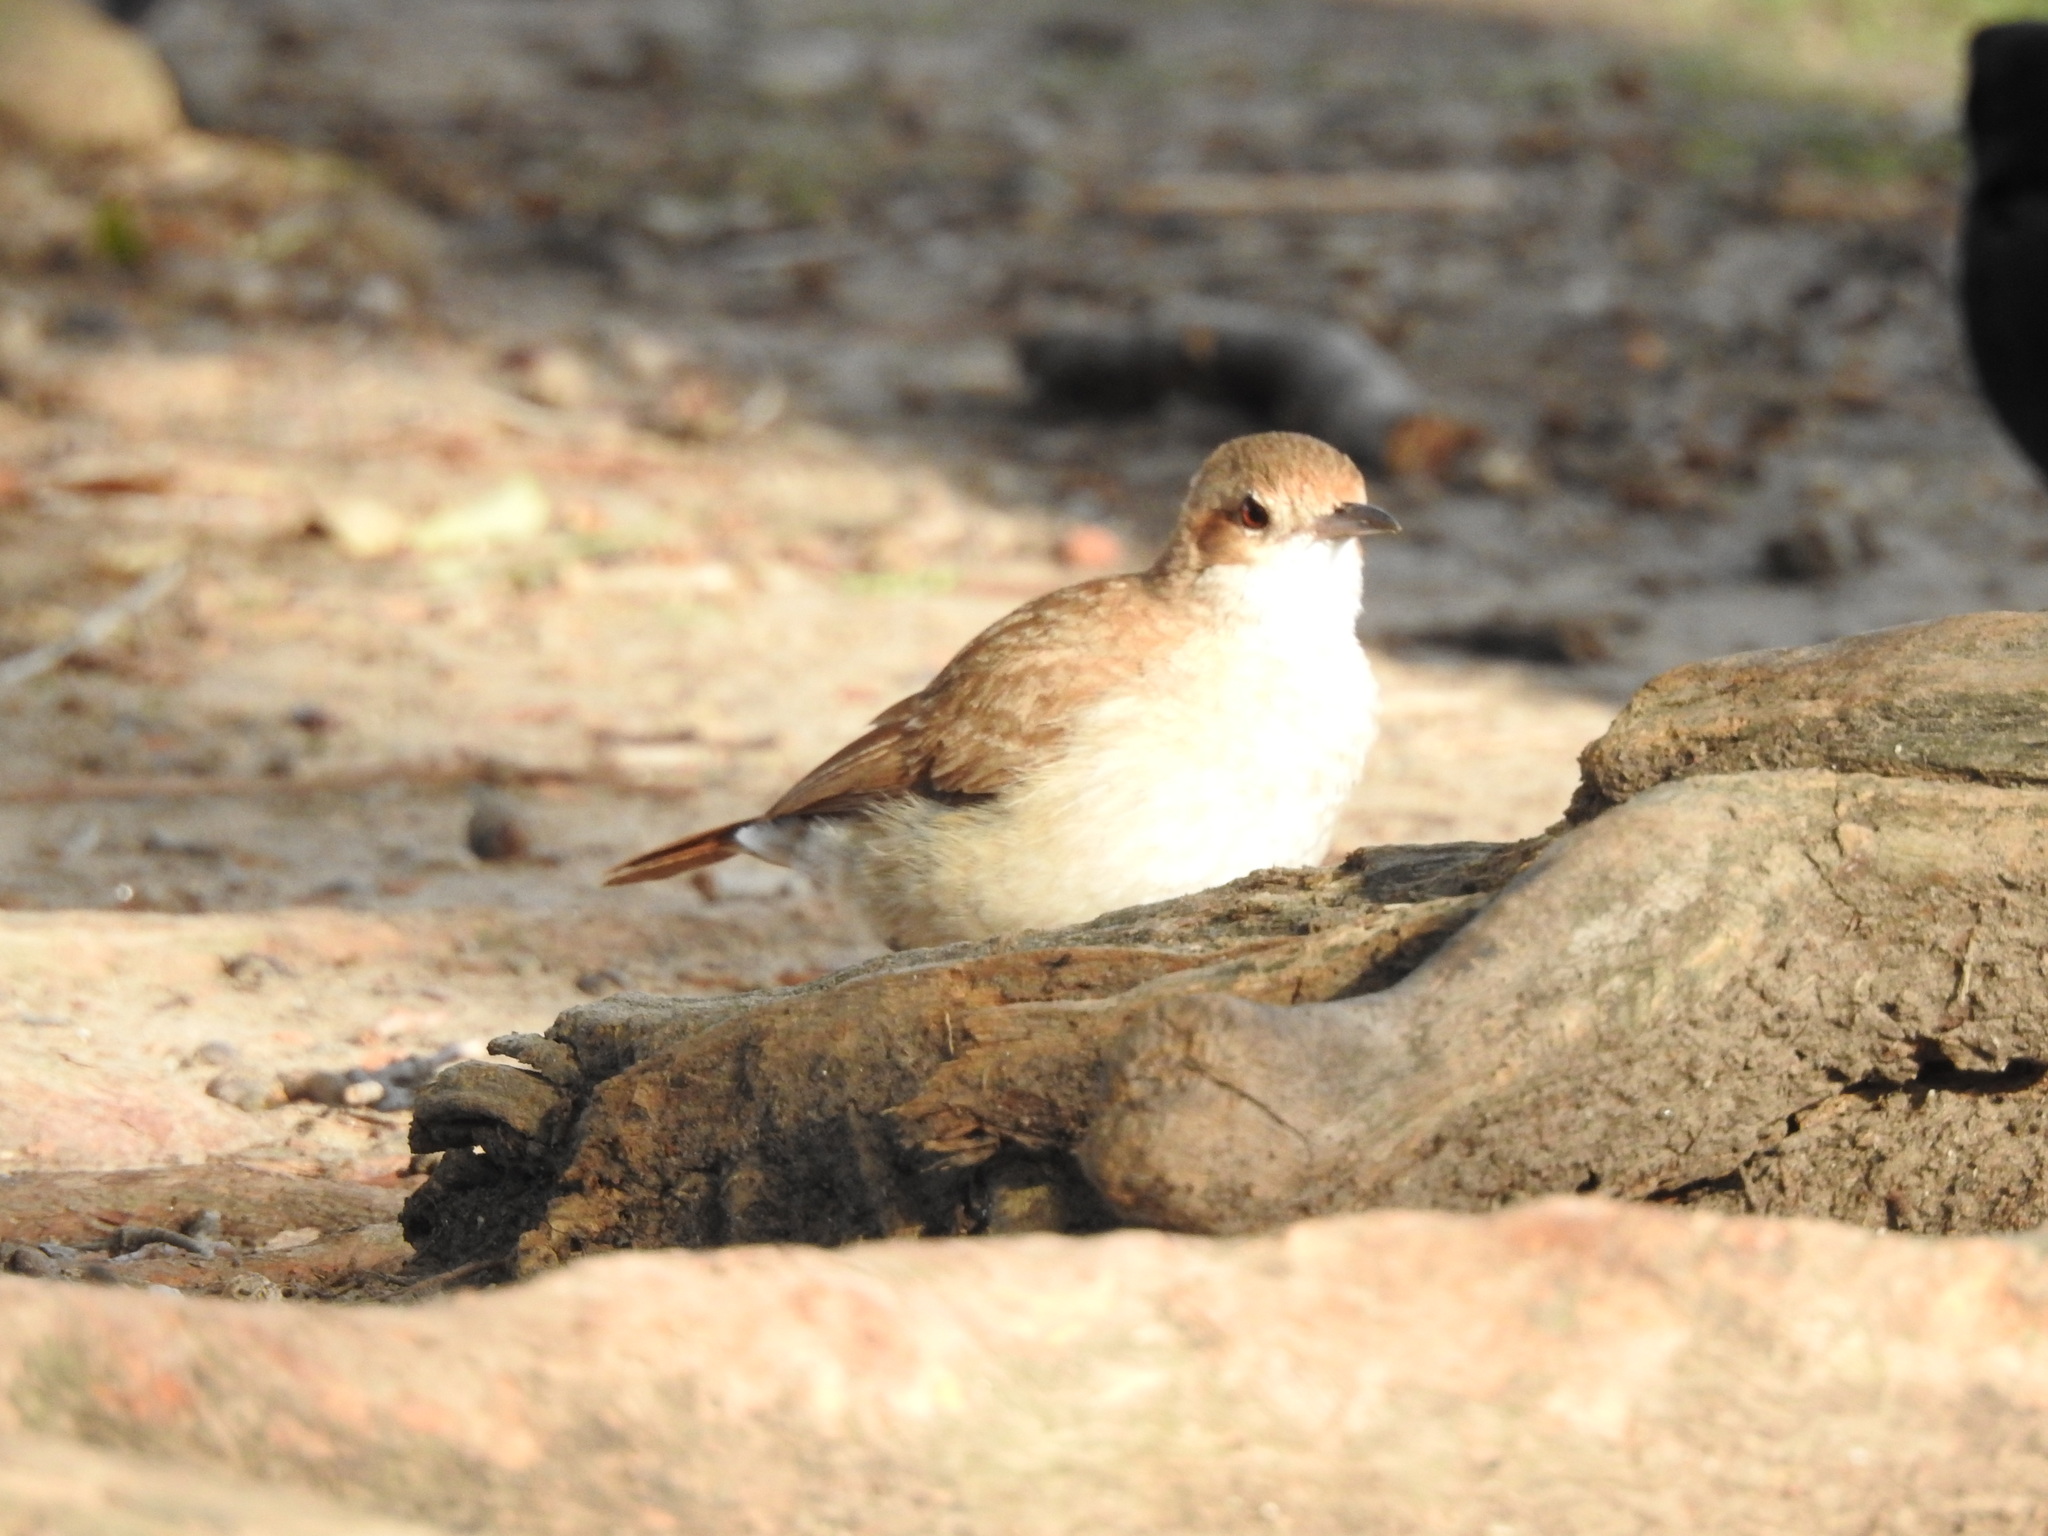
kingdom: Animalia
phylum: Chordata
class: Aves
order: Passeriformes
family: Furnariidae
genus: Furnarius
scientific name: Furnarius rufus
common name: Rufous hornero
